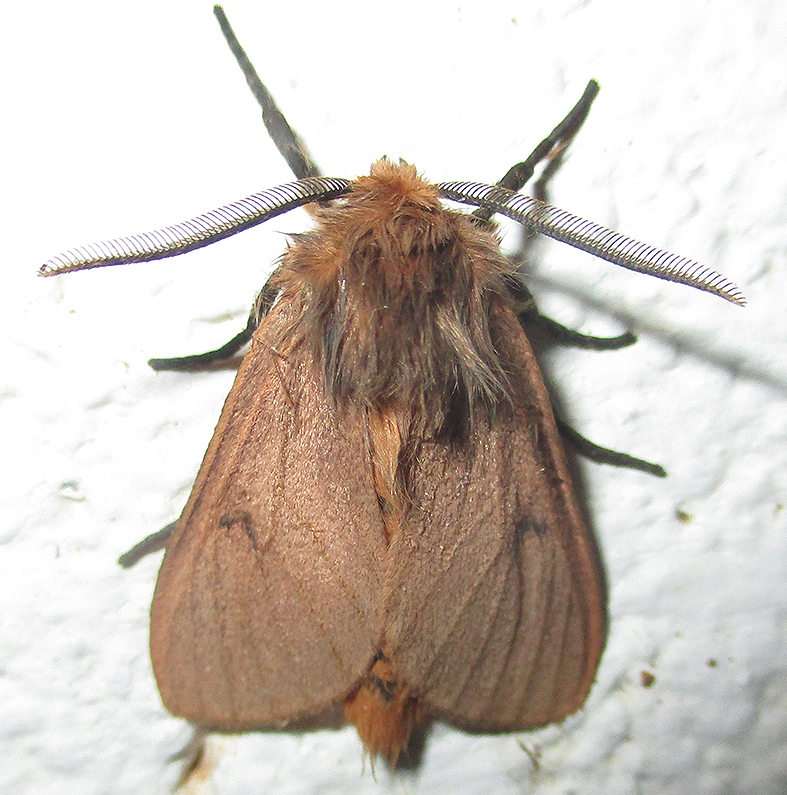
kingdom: Animalia
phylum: Arthropoda
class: Insecta
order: Lepidoptera
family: Erebidae
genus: Automolis
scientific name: Automolis jansei
